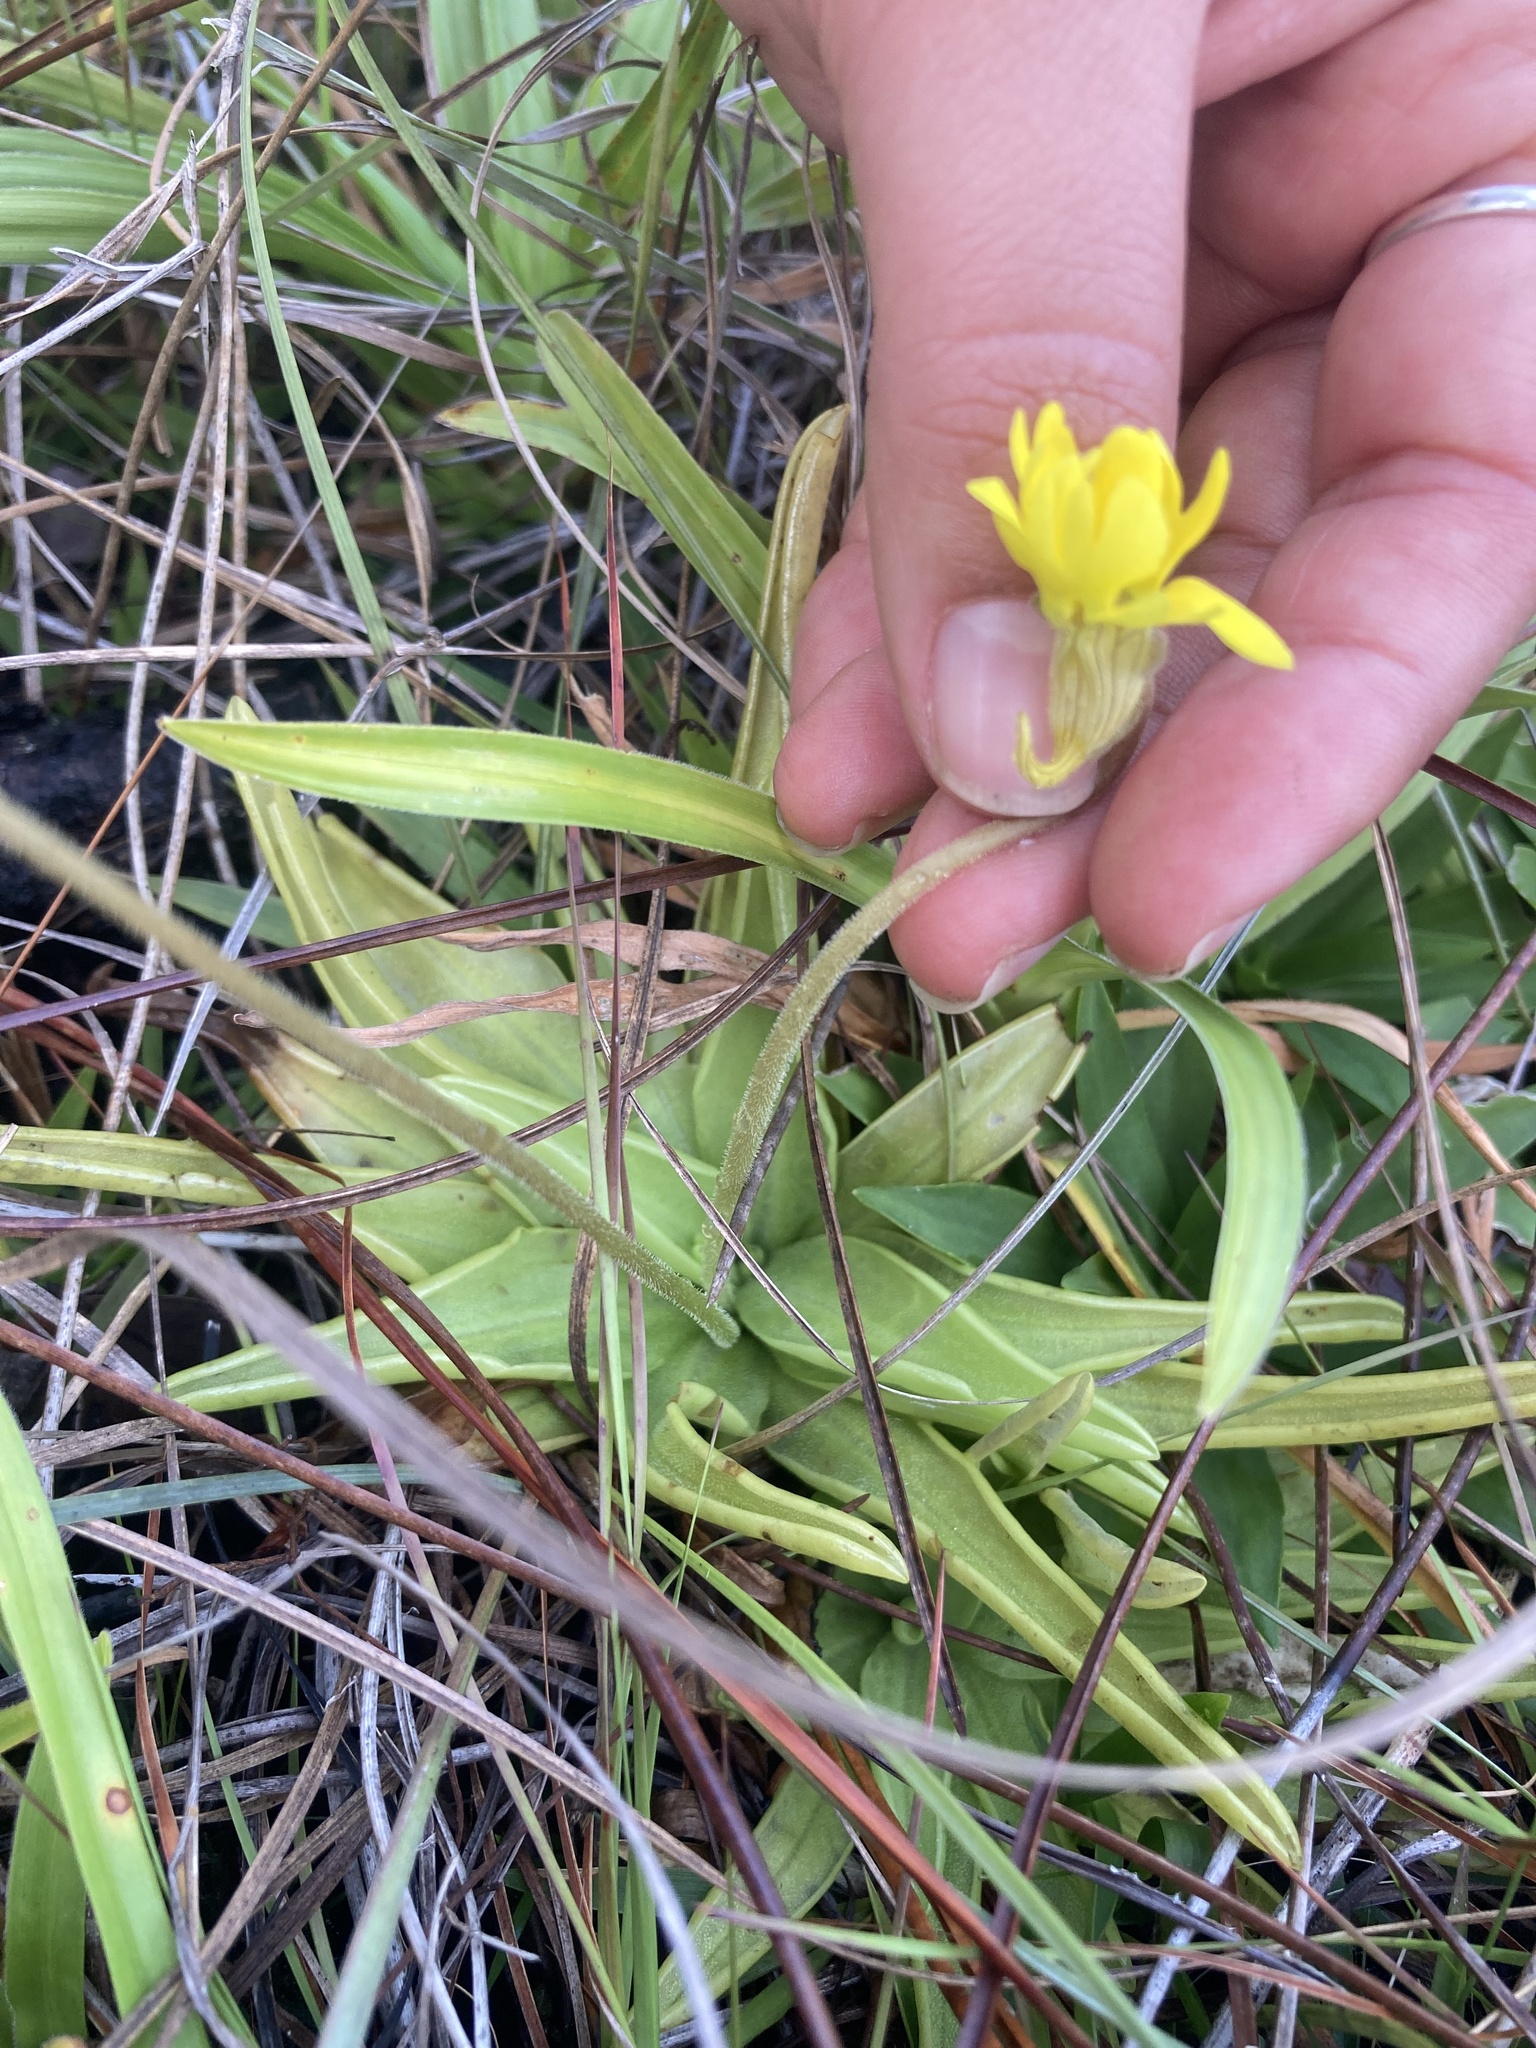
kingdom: Plantae
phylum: Tracheophyta
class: Magnoliopsida
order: Lamiales
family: Lentibulariaceae
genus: Pinguicula
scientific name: Pinguicula lutea
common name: Yellow butterwort
